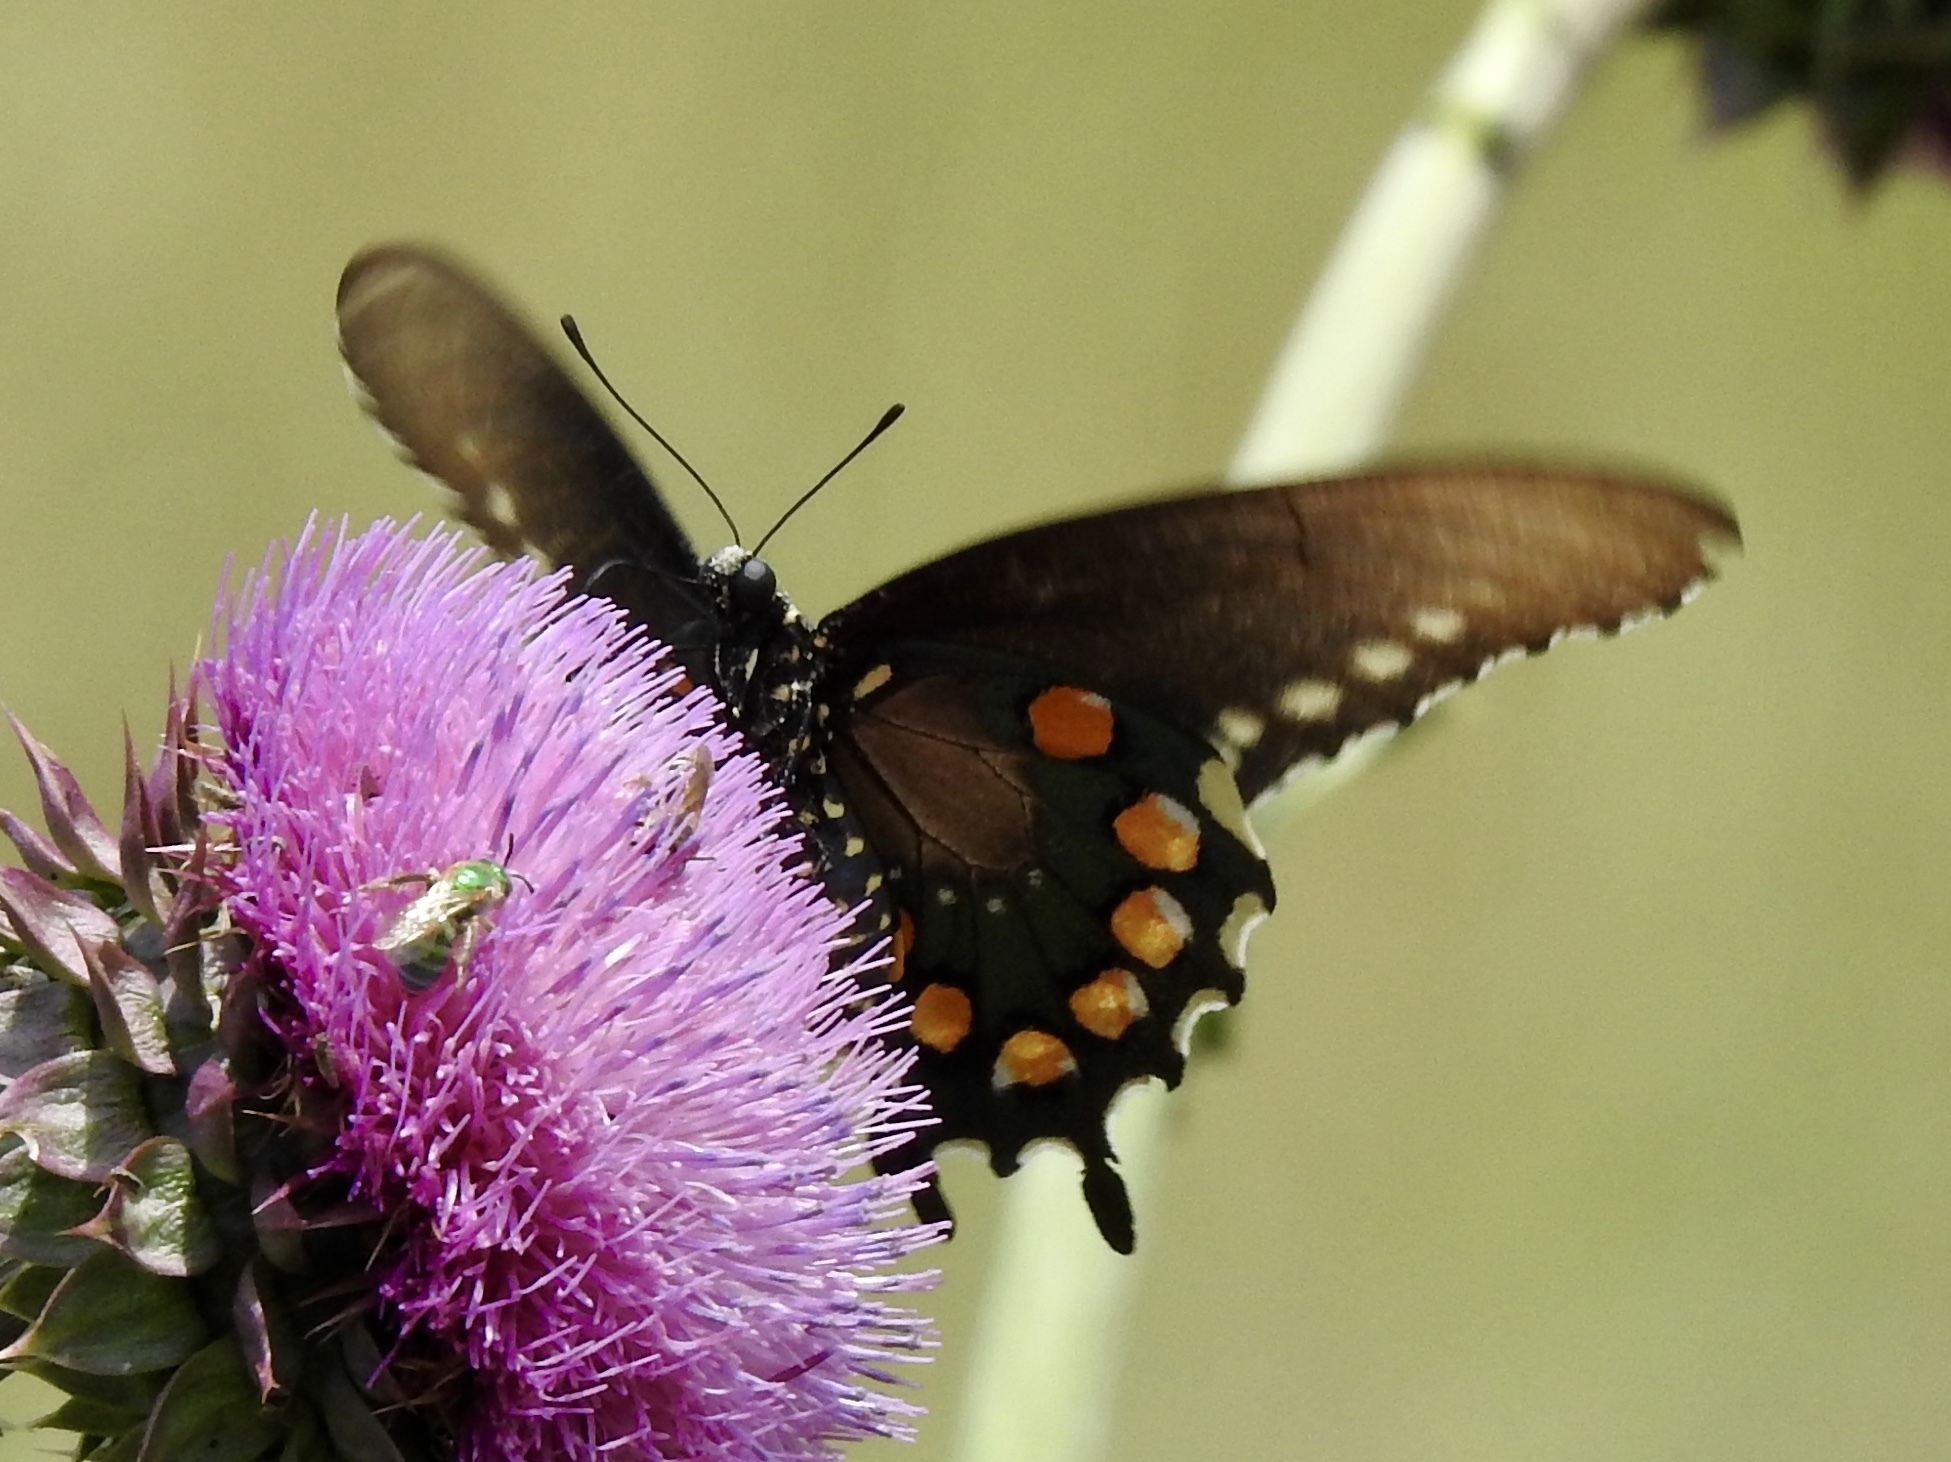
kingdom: Animalia
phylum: Arthropoda
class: Insecta
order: Lepidoptera
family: Papilionidae
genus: Battus
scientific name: Battus philenor
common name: Pipevine swallowtail
